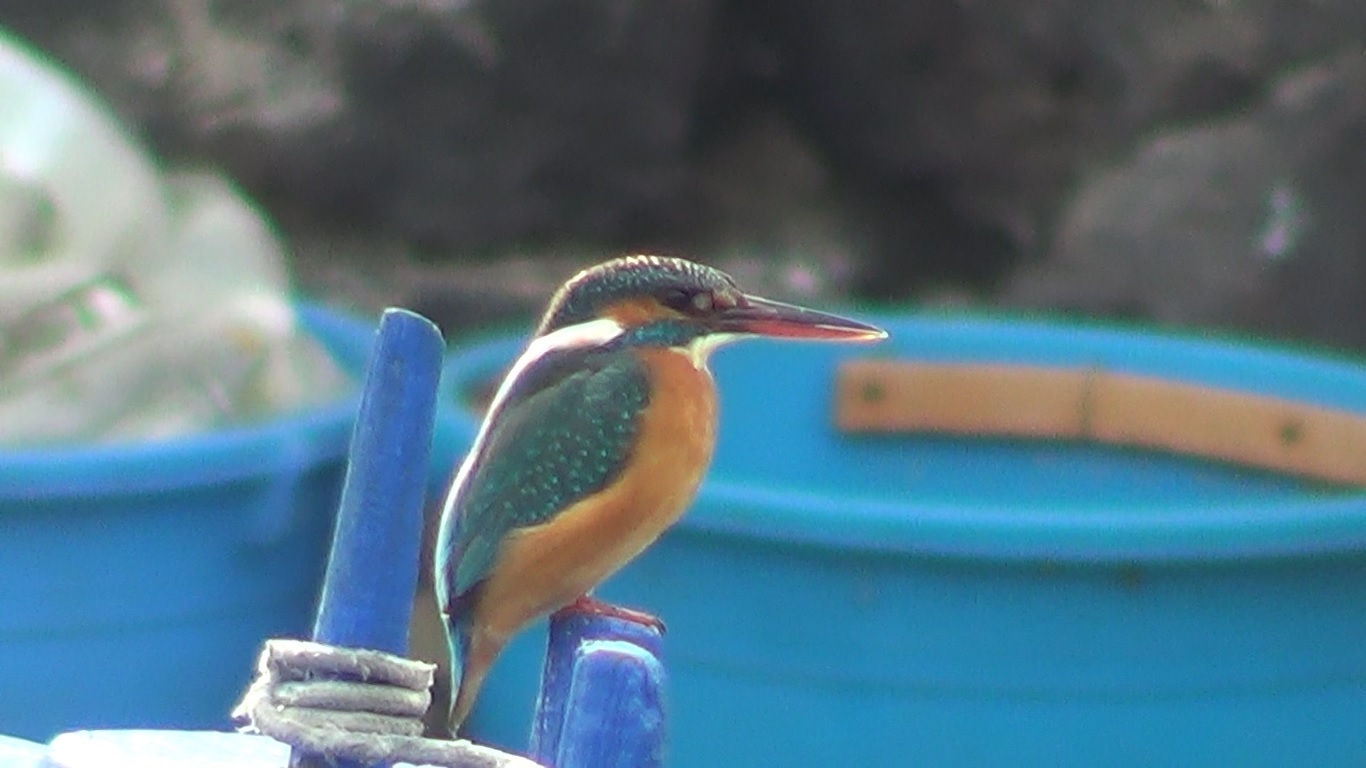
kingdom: Animalia
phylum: Chordata
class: Aves
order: Coraciiformes
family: Alcedinidae
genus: Alcedo
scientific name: Alcedo atthis
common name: Common kingfisher
